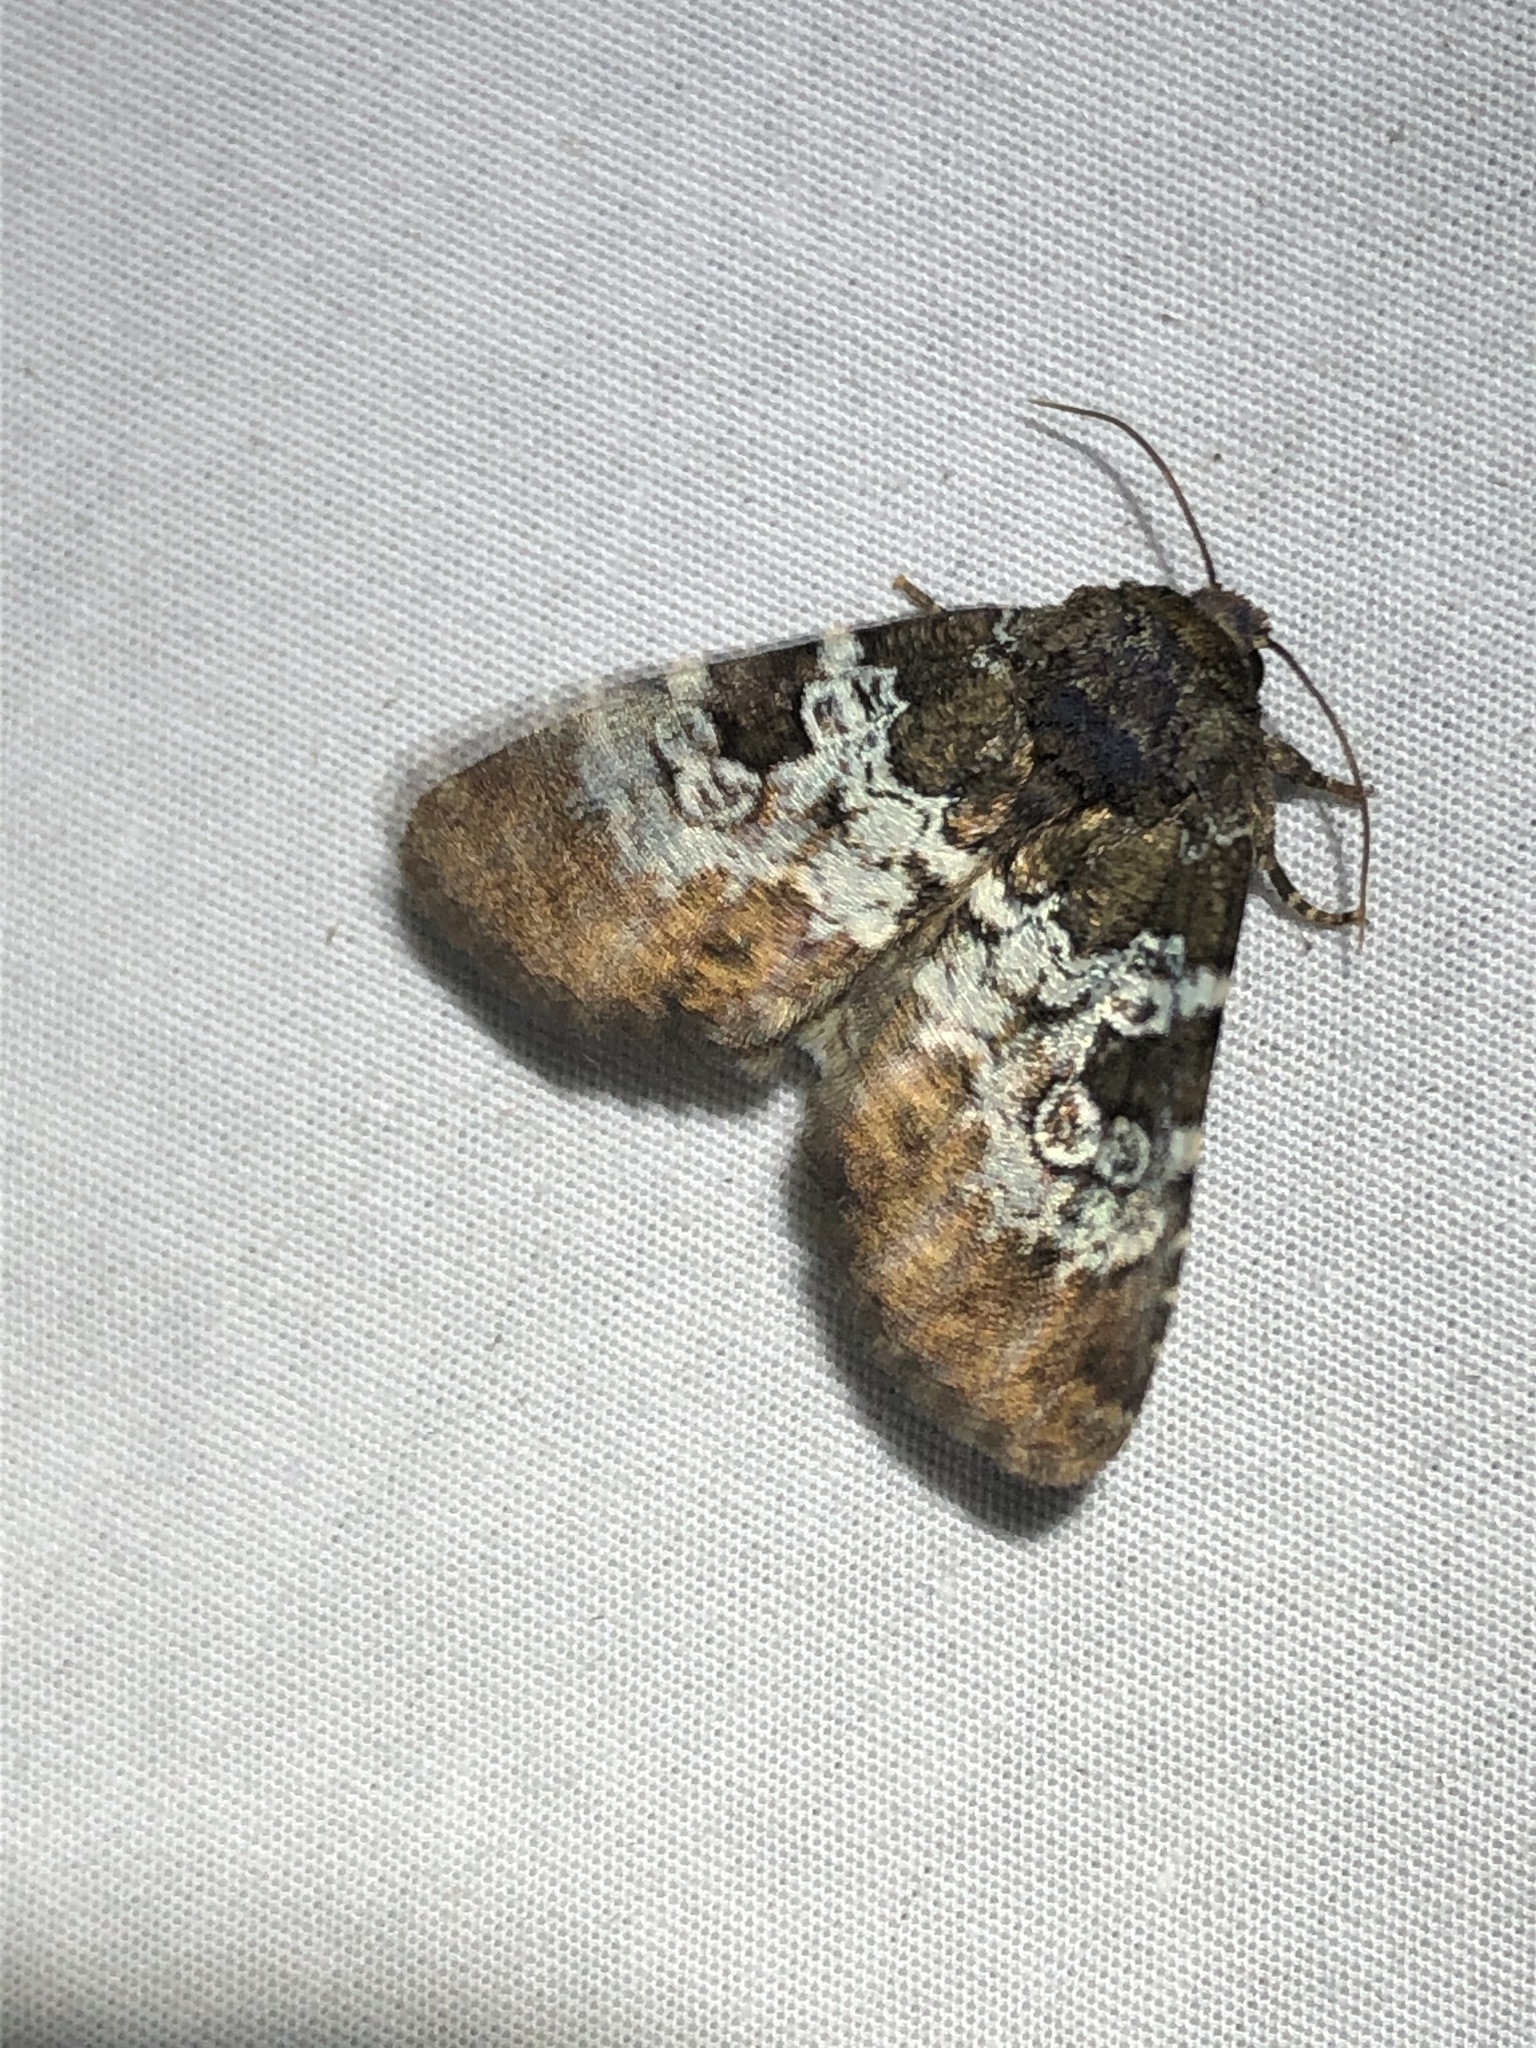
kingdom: Animalia
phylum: Arthropoda
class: Insecta
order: Lepidoptera
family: Noctuidae
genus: Hemibryomima
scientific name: Hemibryomima chryselectra
